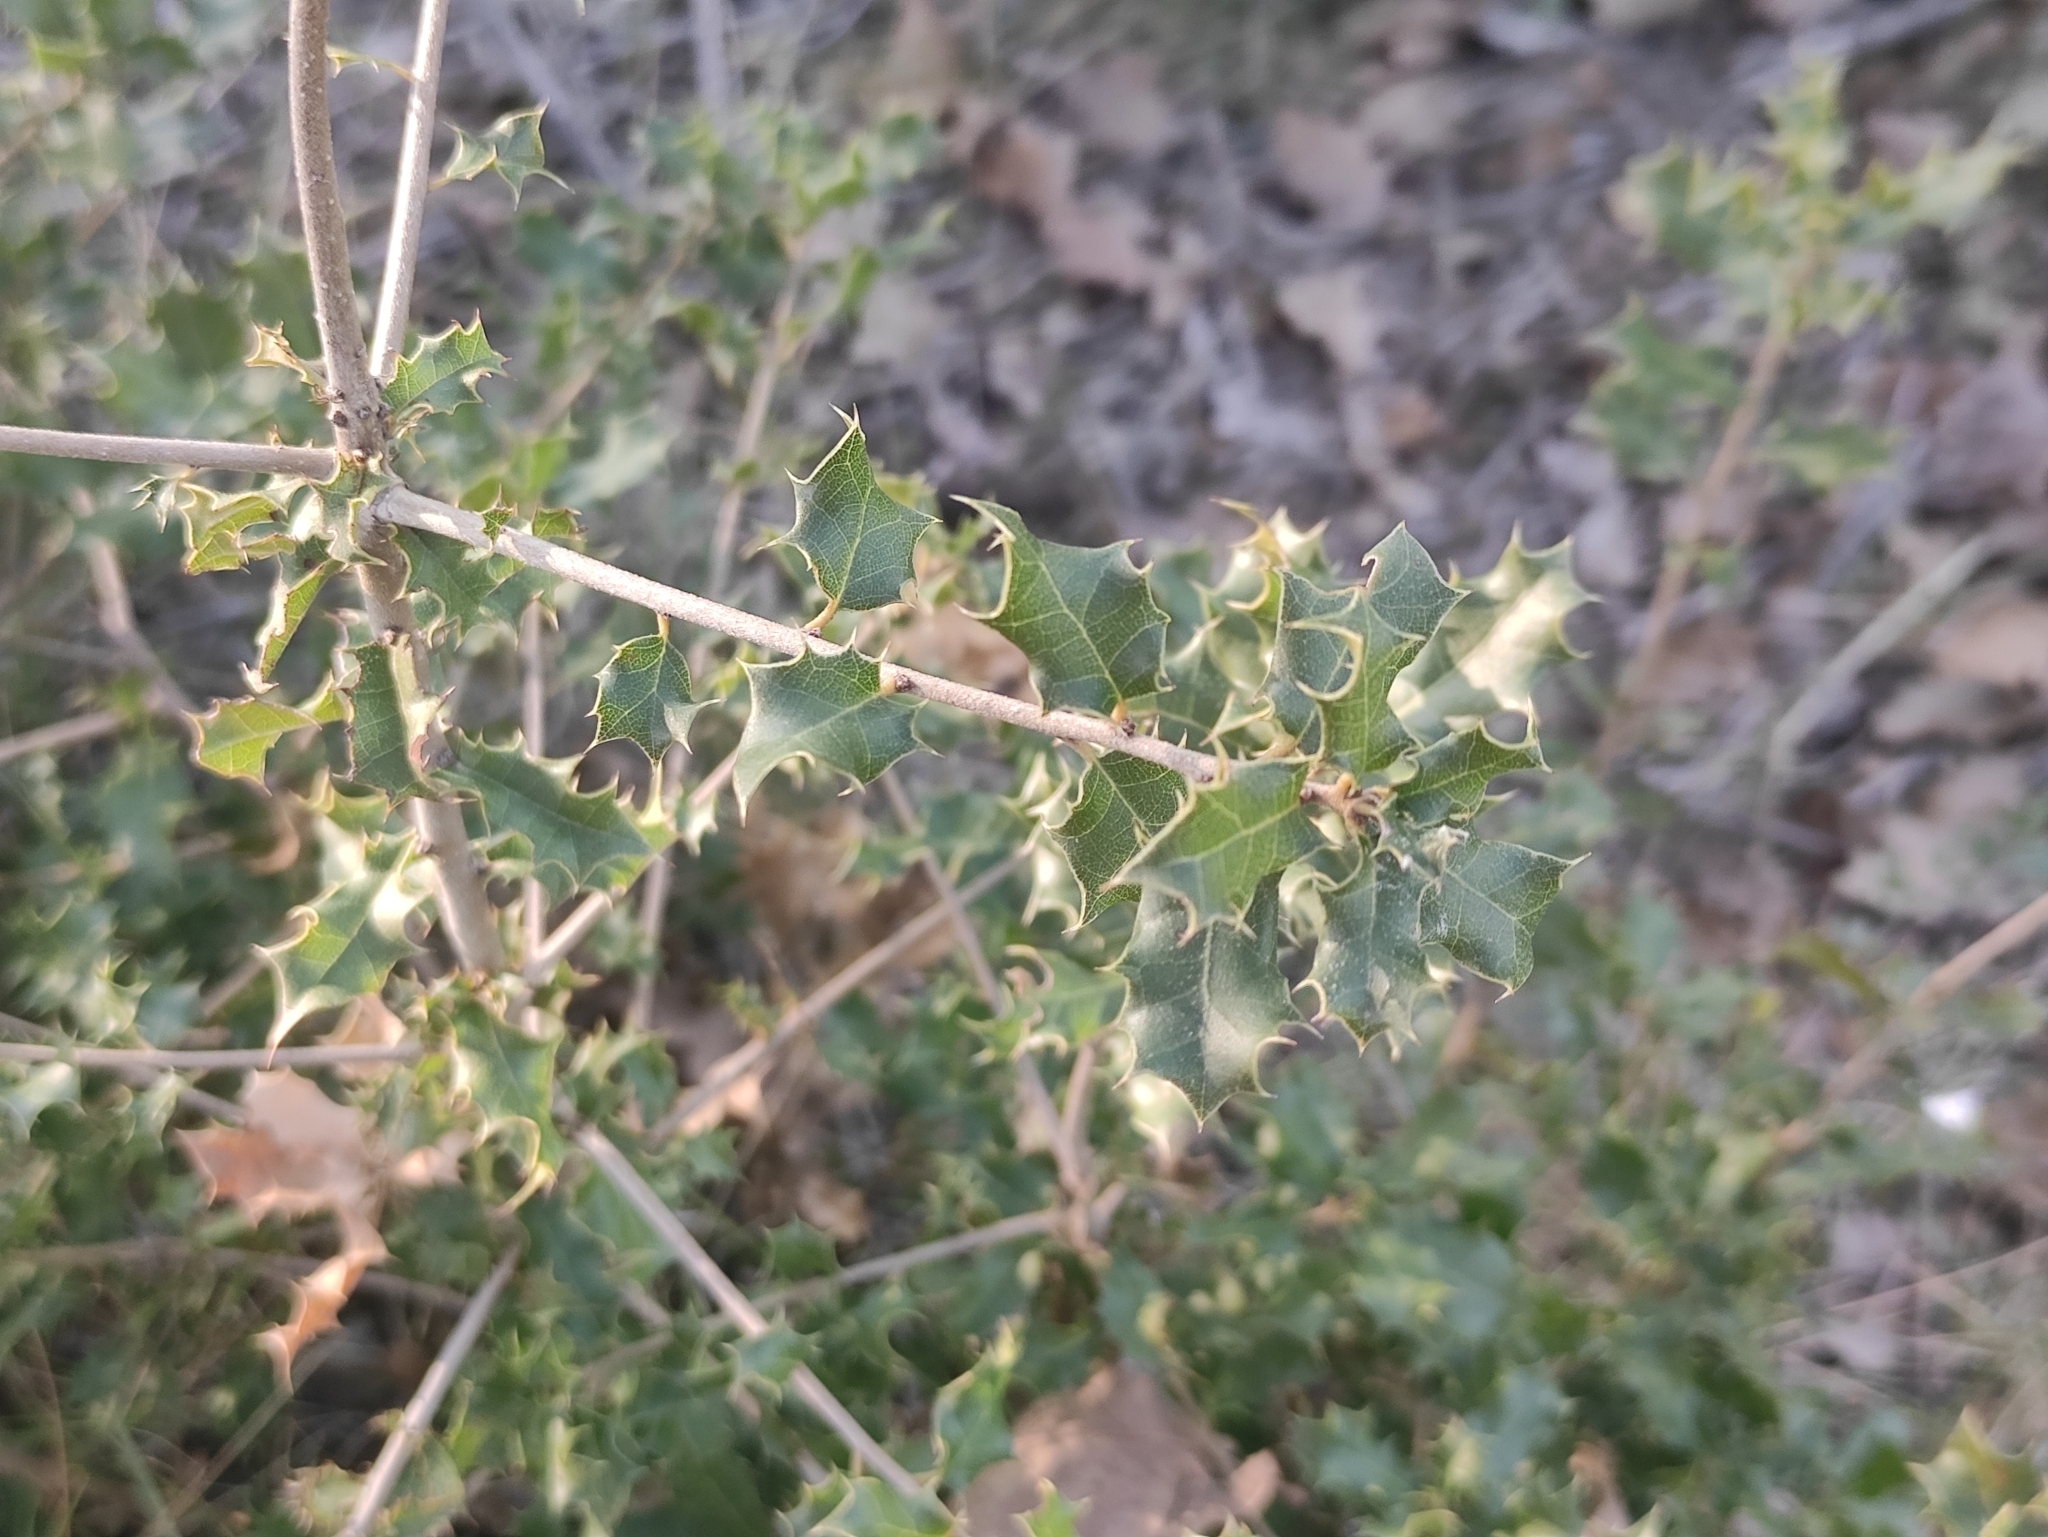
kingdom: Plantae
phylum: Tracheophyta
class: Magnoliopsida
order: Fagales
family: Fagaceae
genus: Quercus
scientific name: Quercus coccifera
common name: Kermes oak
